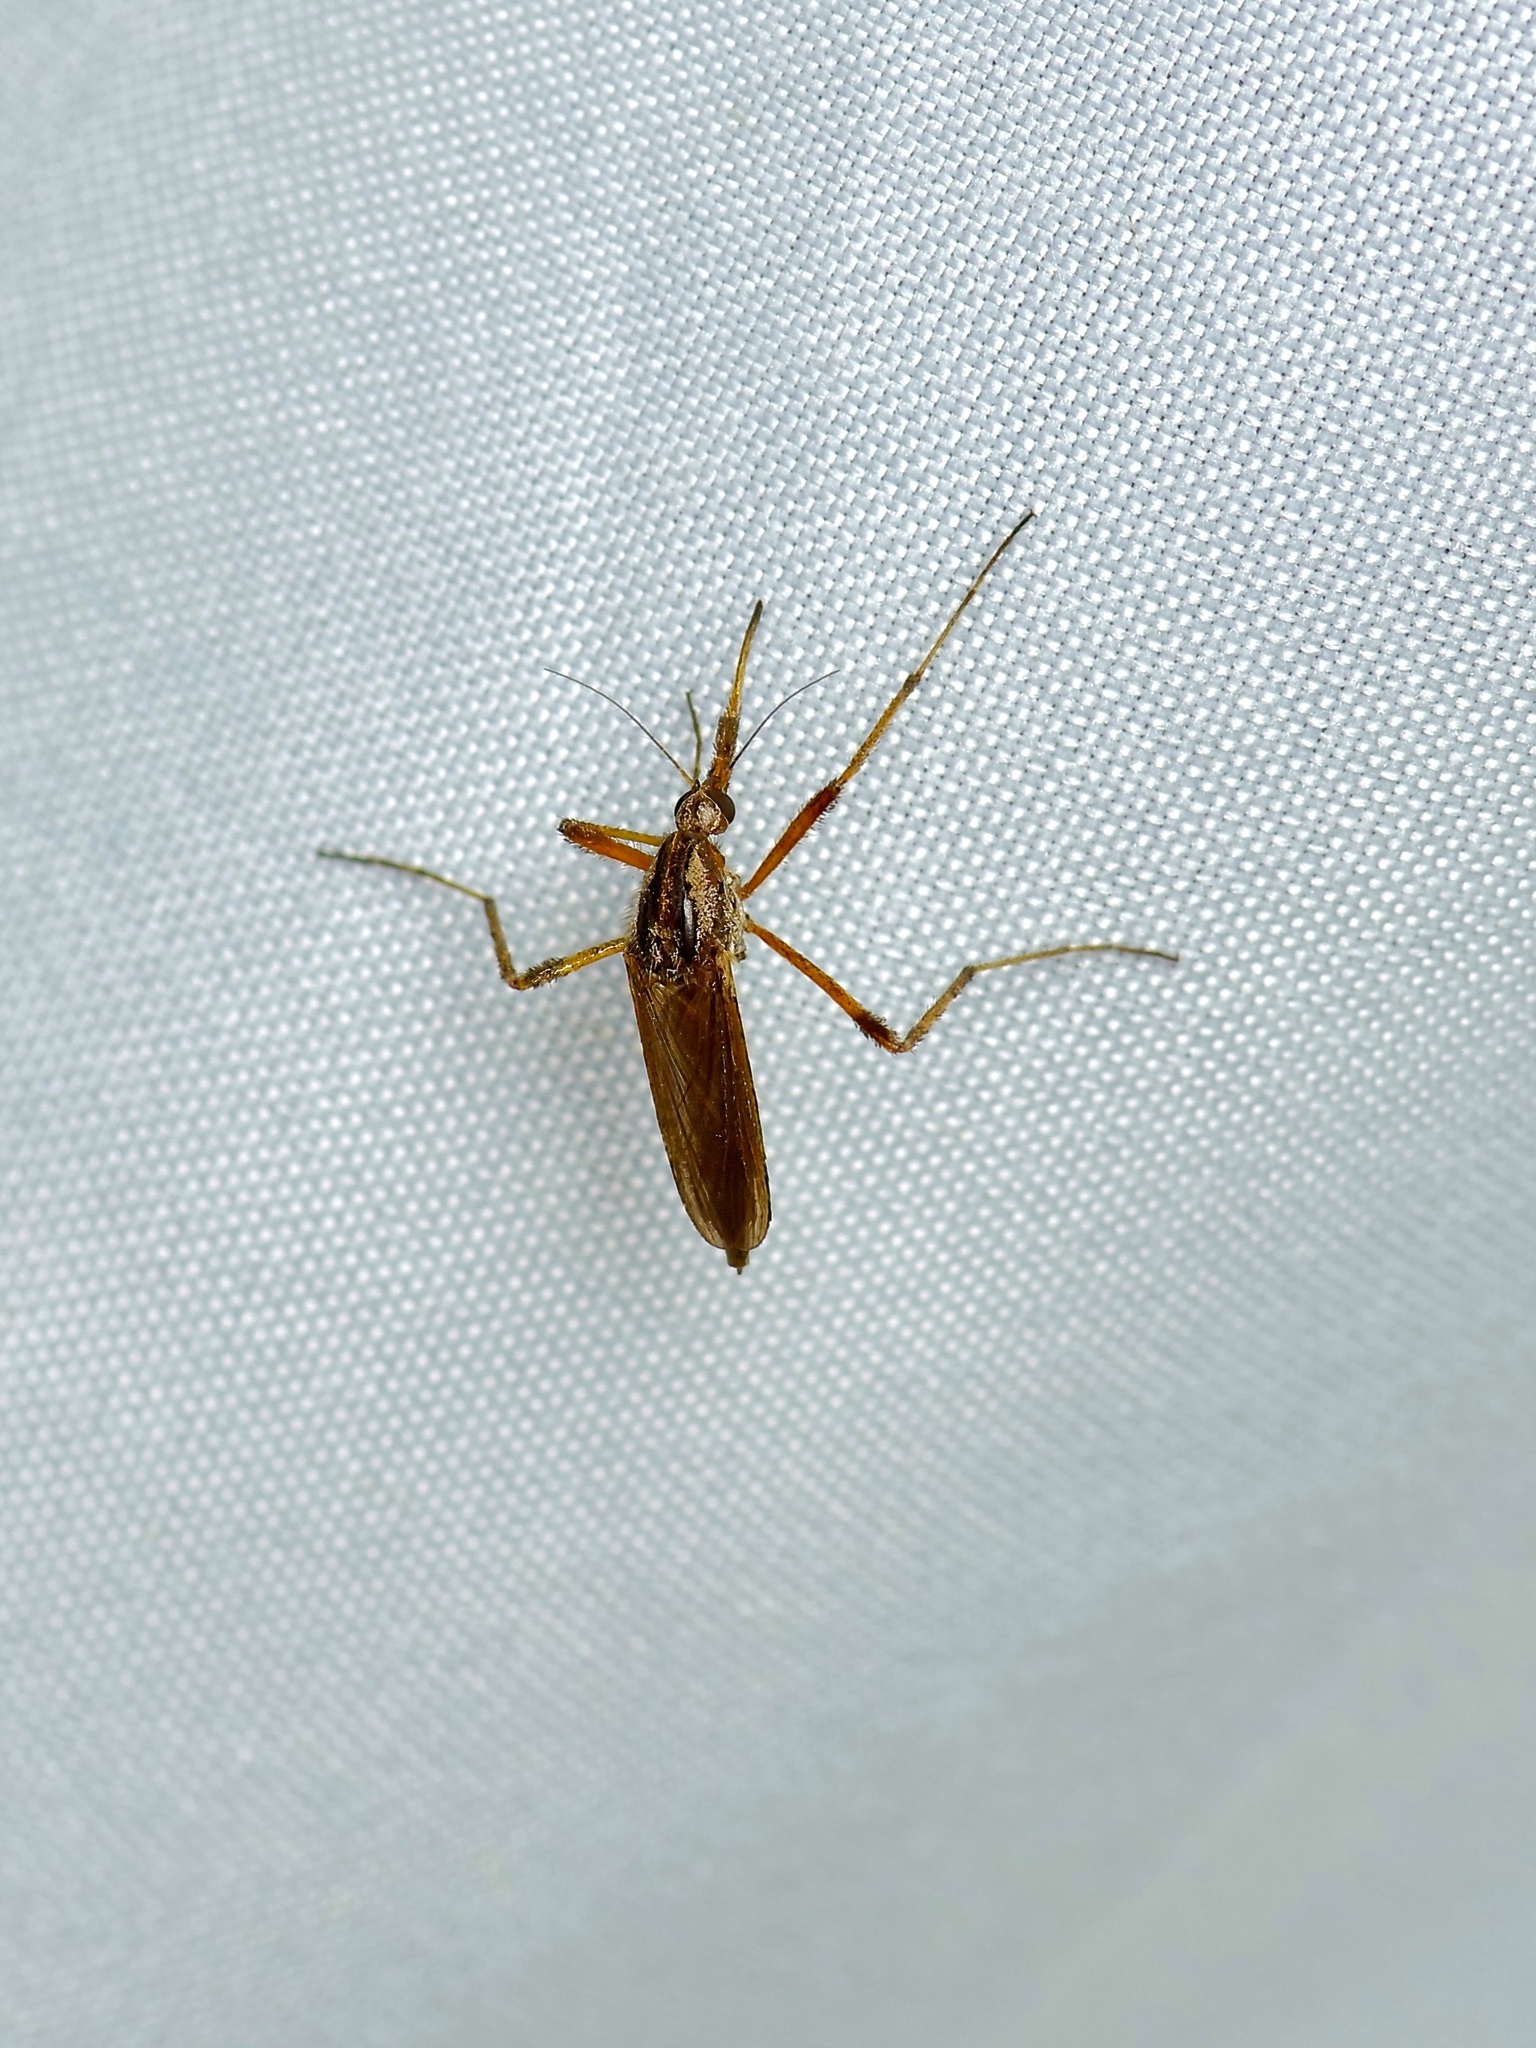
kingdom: Animalia
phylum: Arthropoda
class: Insecta
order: Diptera
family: Culicidae
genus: Psorophora
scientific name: Psorophora ciliata
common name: Gallinipper
